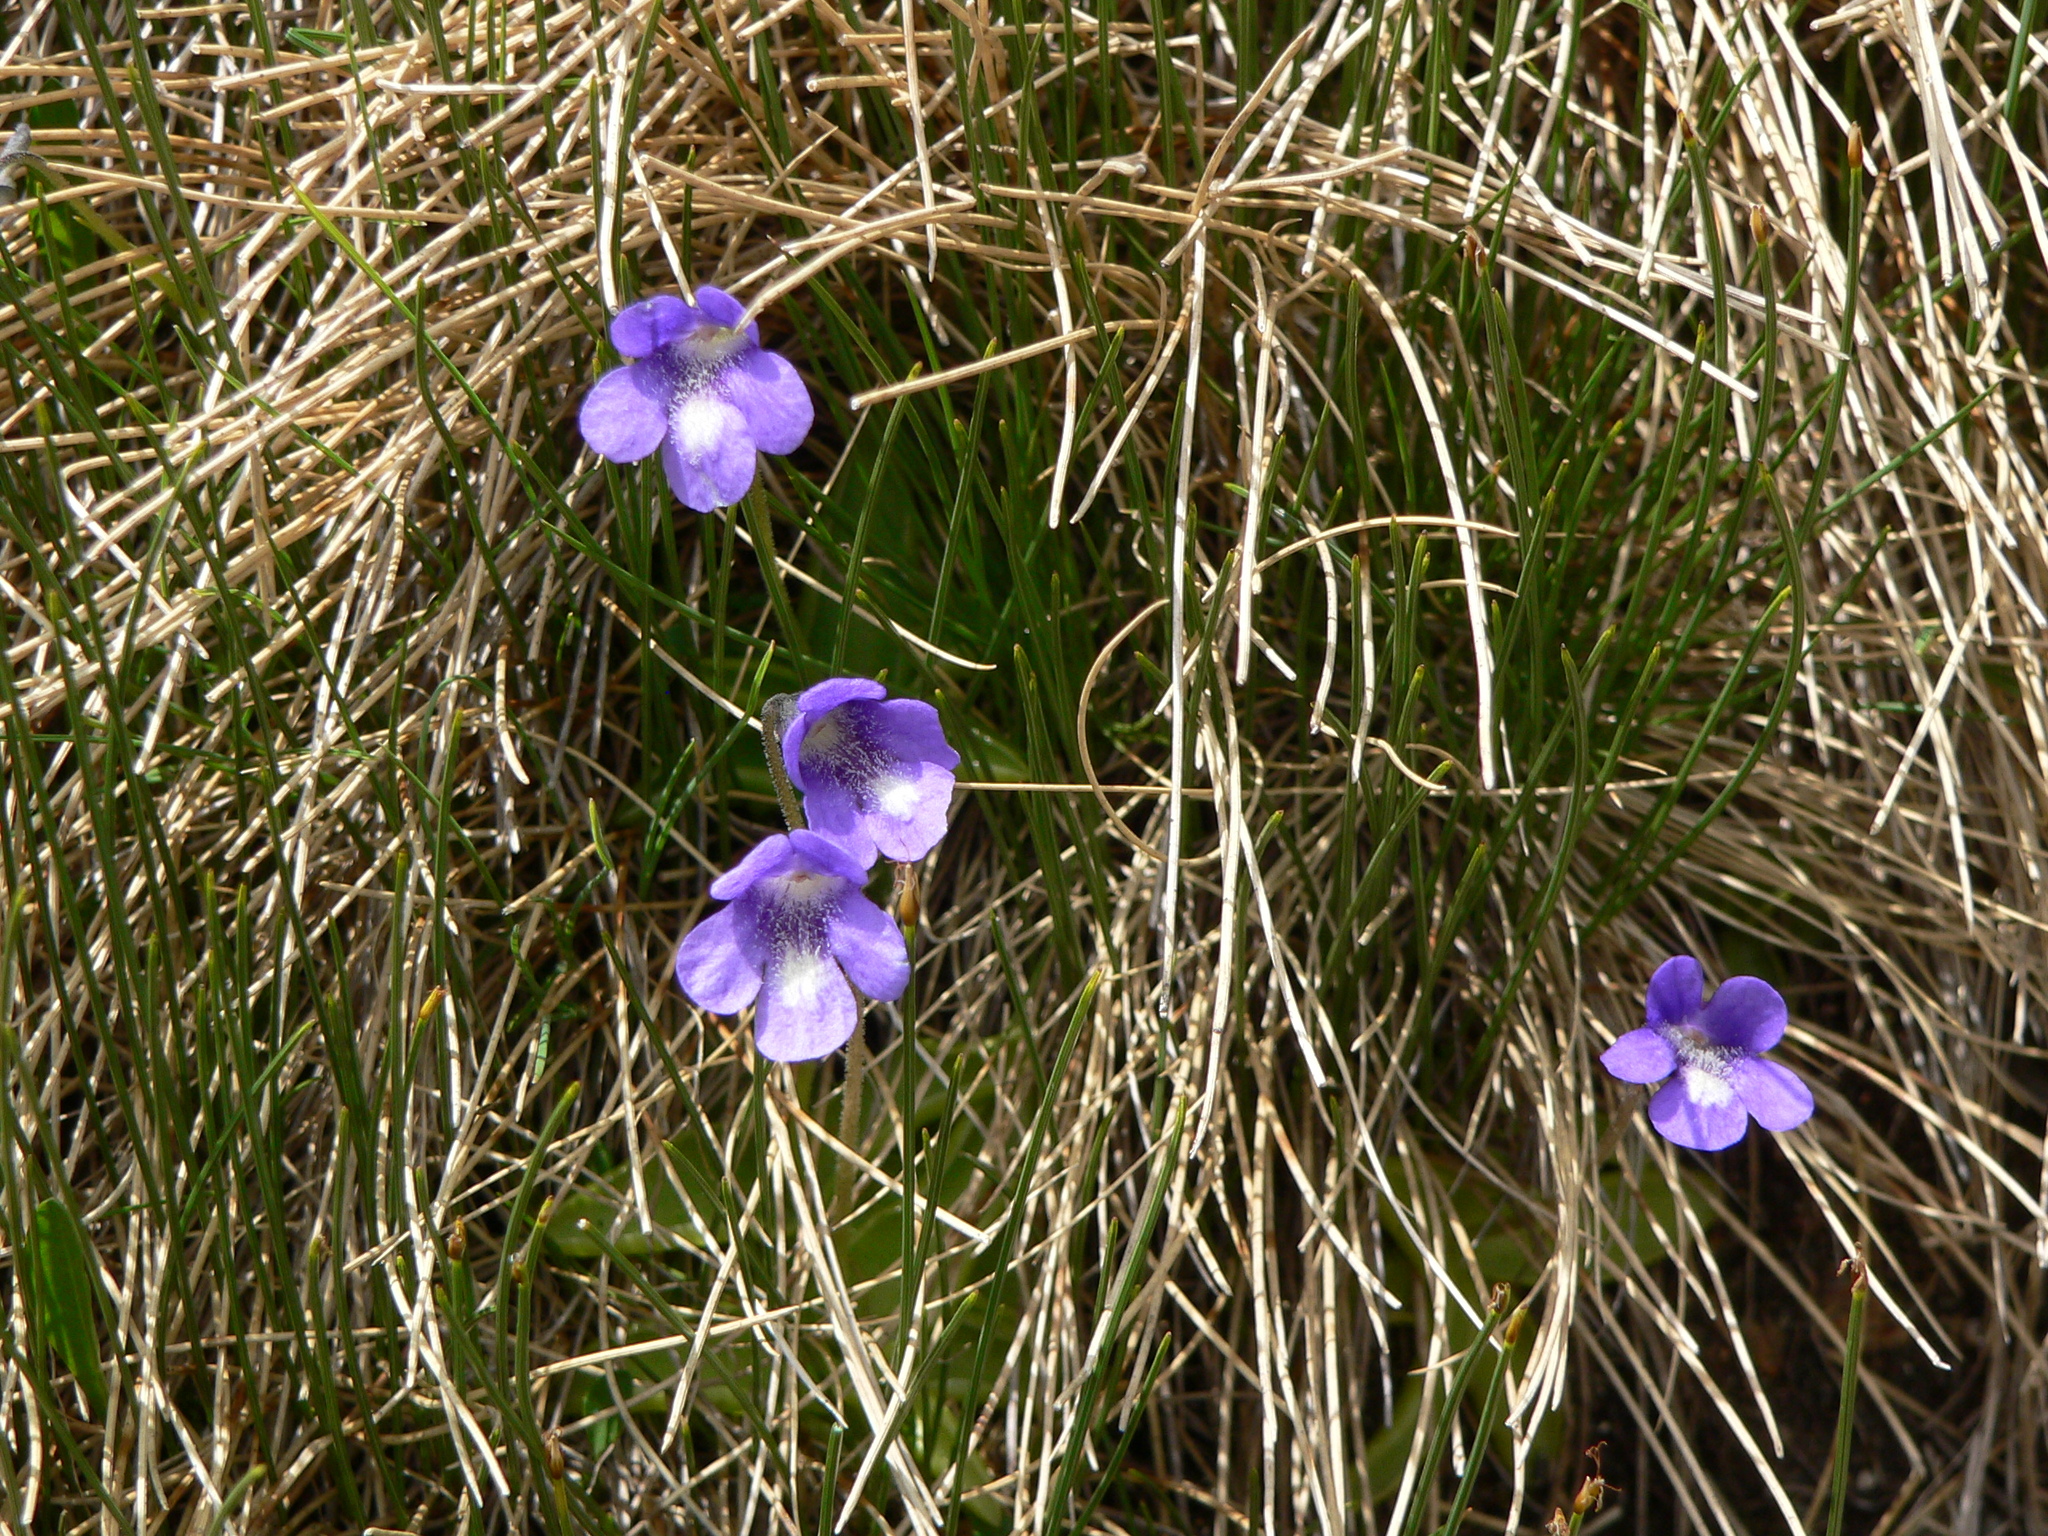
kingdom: Plantae
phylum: Tracheophyta
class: Magnoliopsida
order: Lamiales
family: Lentibulariaceae
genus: Pinguicula
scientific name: Pinguicula leptoceras
